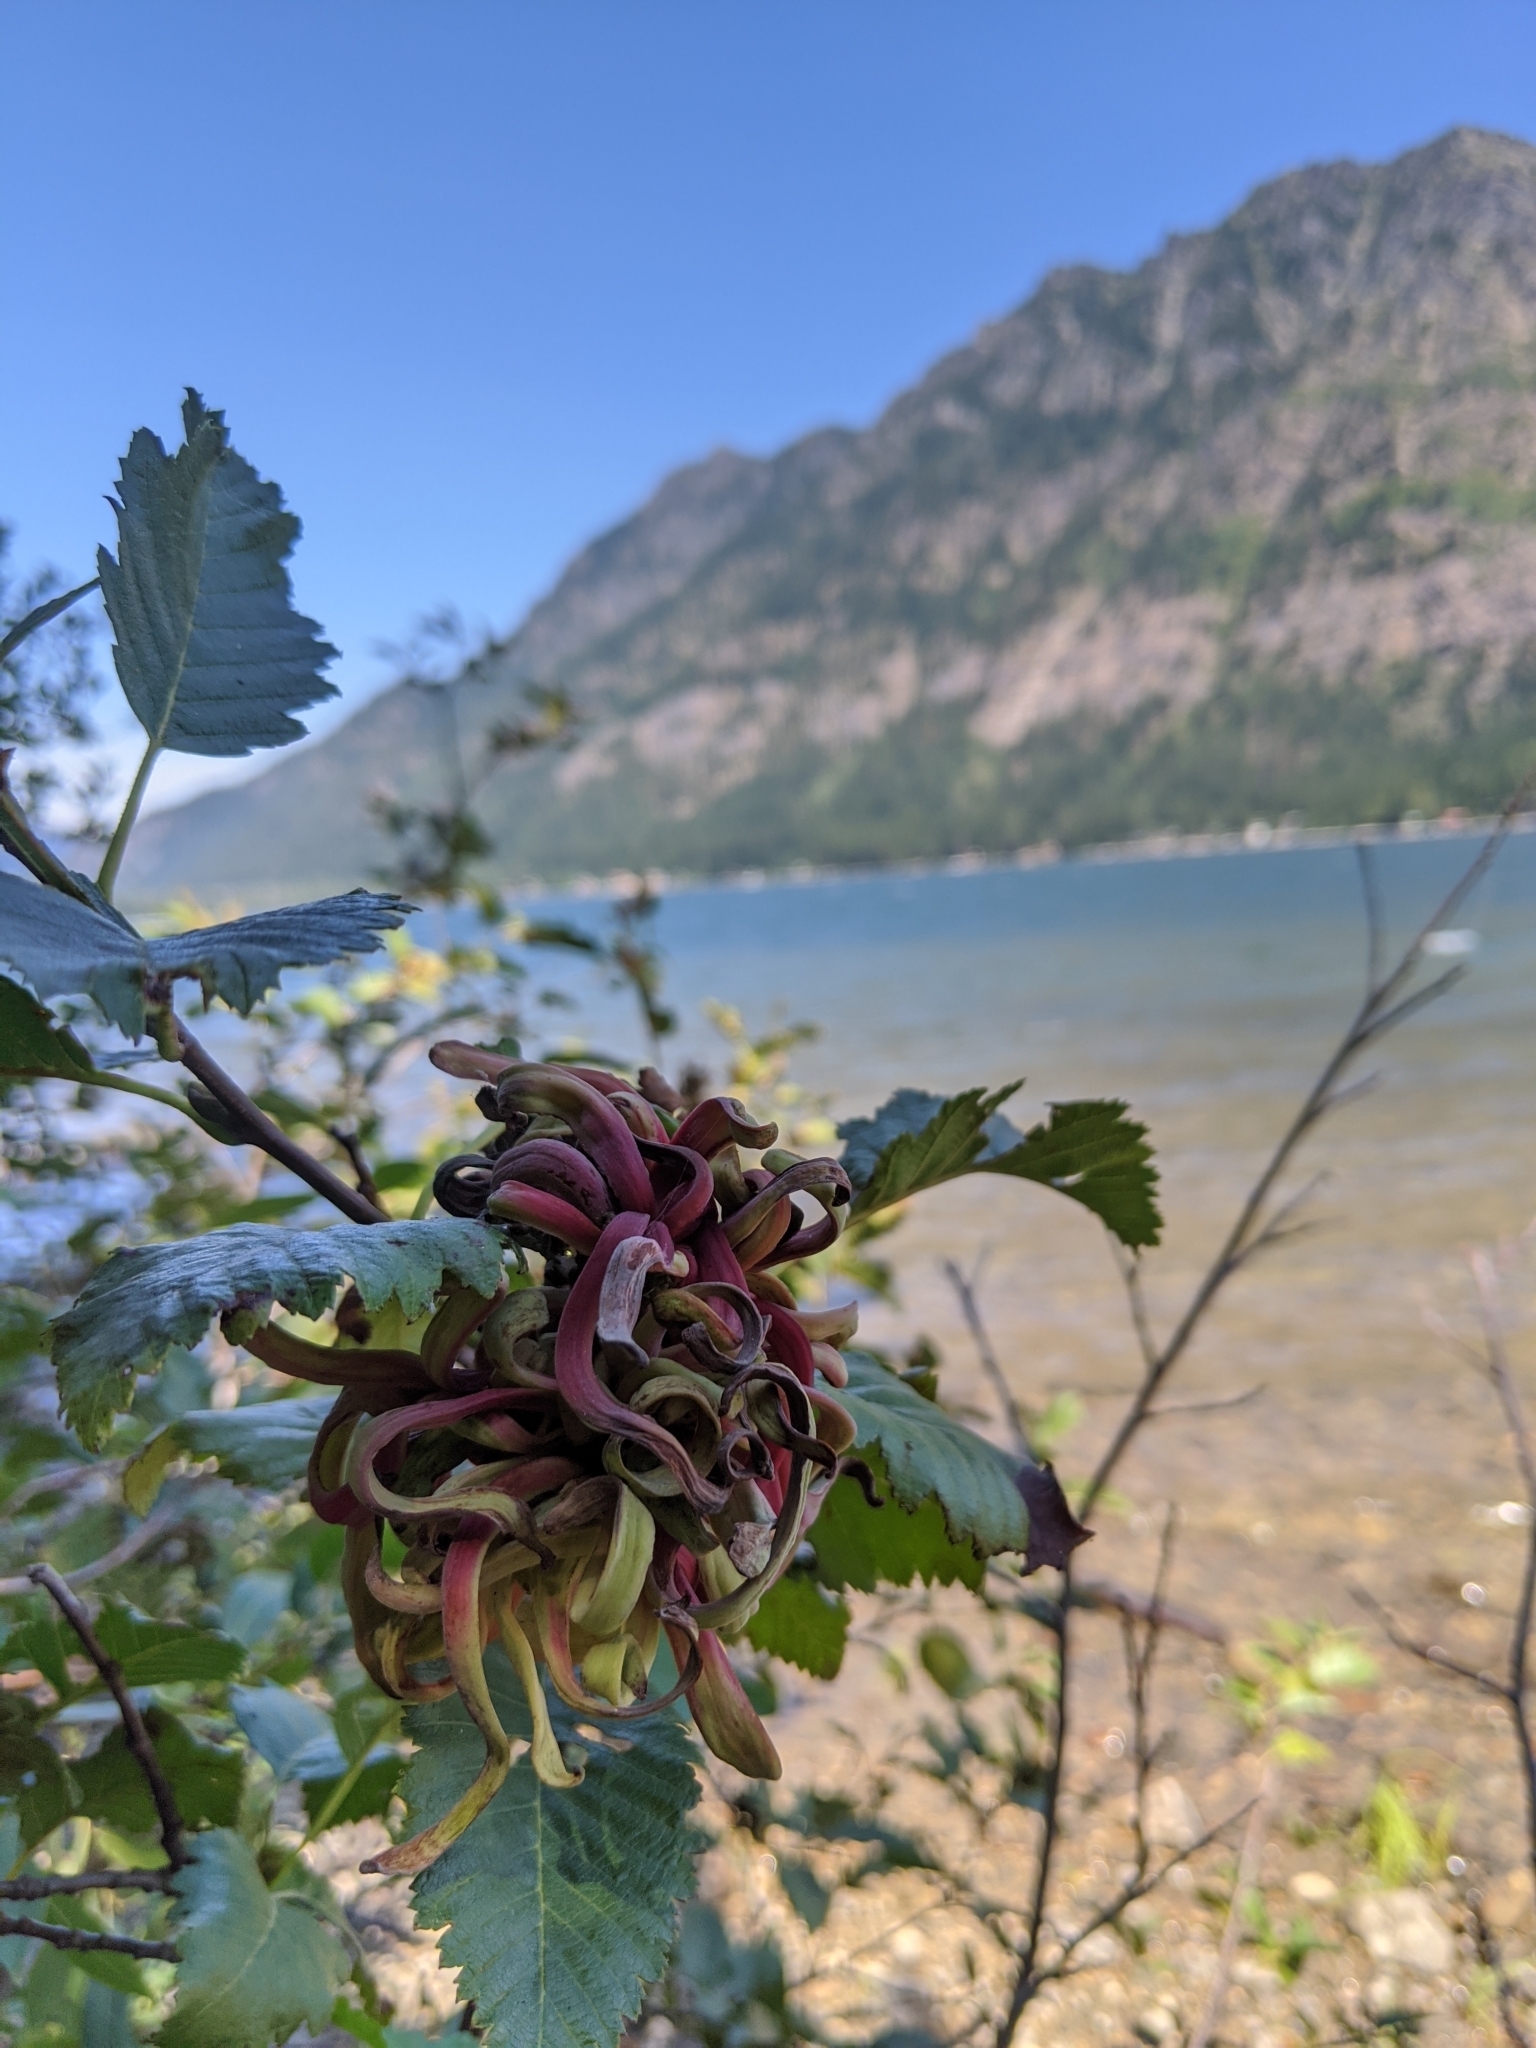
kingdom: Fungi
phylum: Ascomycota
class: Taphrinomycetes
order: Taphrinales
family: Taphrinaceae
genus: Taphrina
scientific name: Taphrina occidentalis
